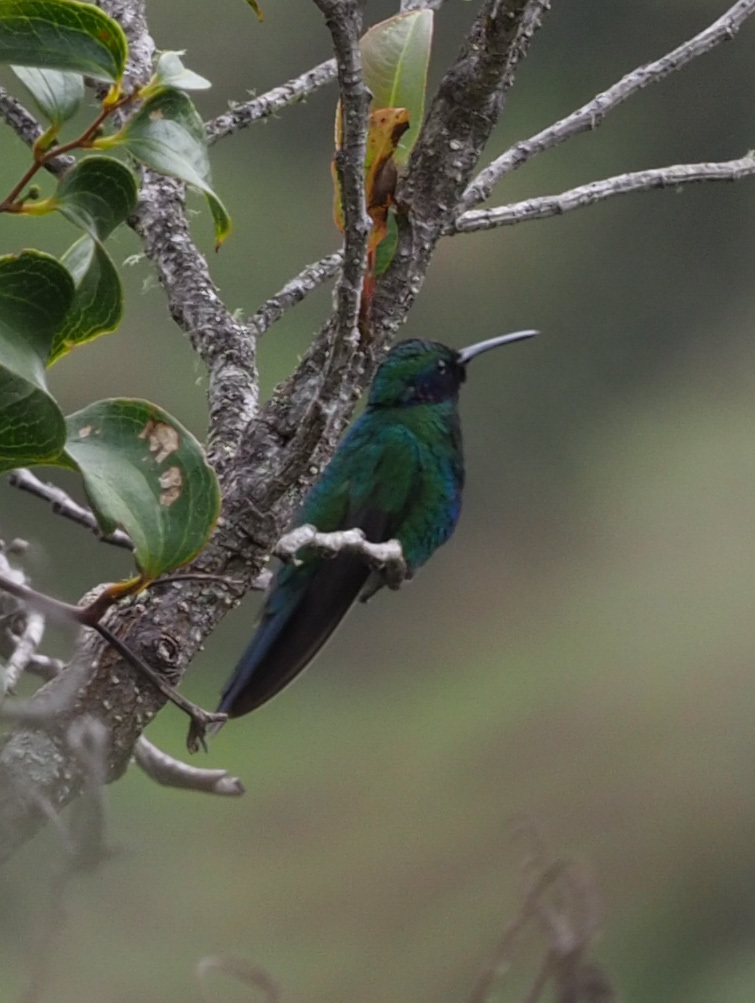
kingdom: Animalia
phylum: Chordata
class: Aves
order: Apodiformes
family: Trochilidae
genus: Colibri
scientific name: Colibri coruscans
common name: Sparkling violetear
